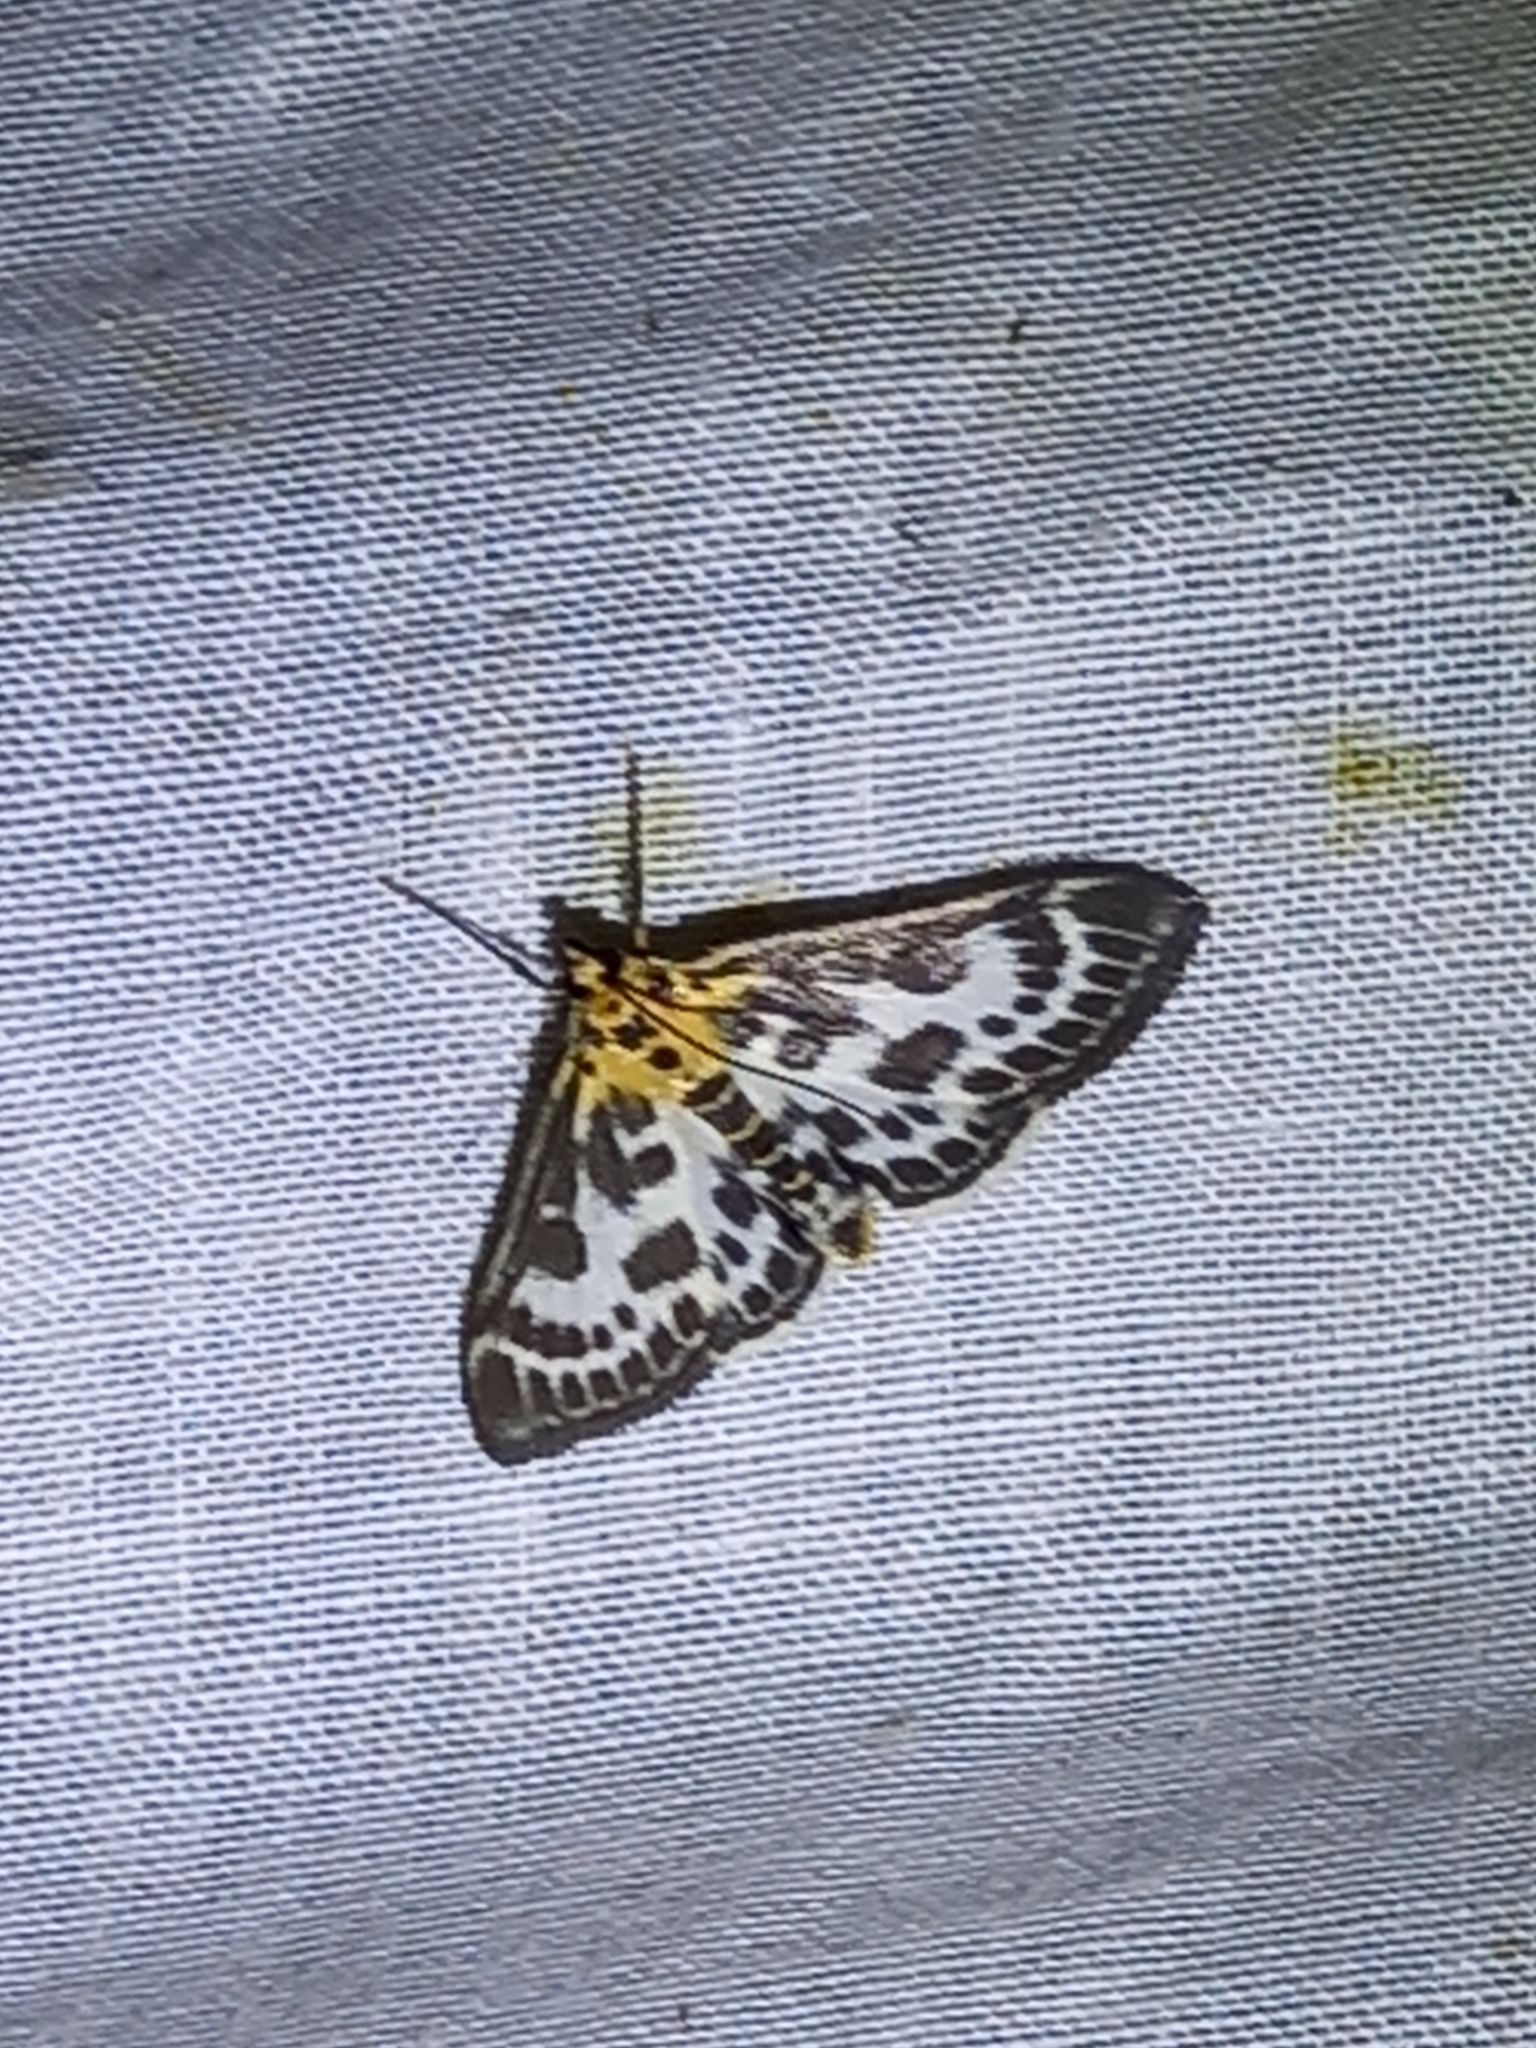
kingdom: Animalia
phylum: Arthropoda
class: Insecta
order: Lepidoptera
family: Crambidae
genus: Anania
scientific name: Anania hortulata
